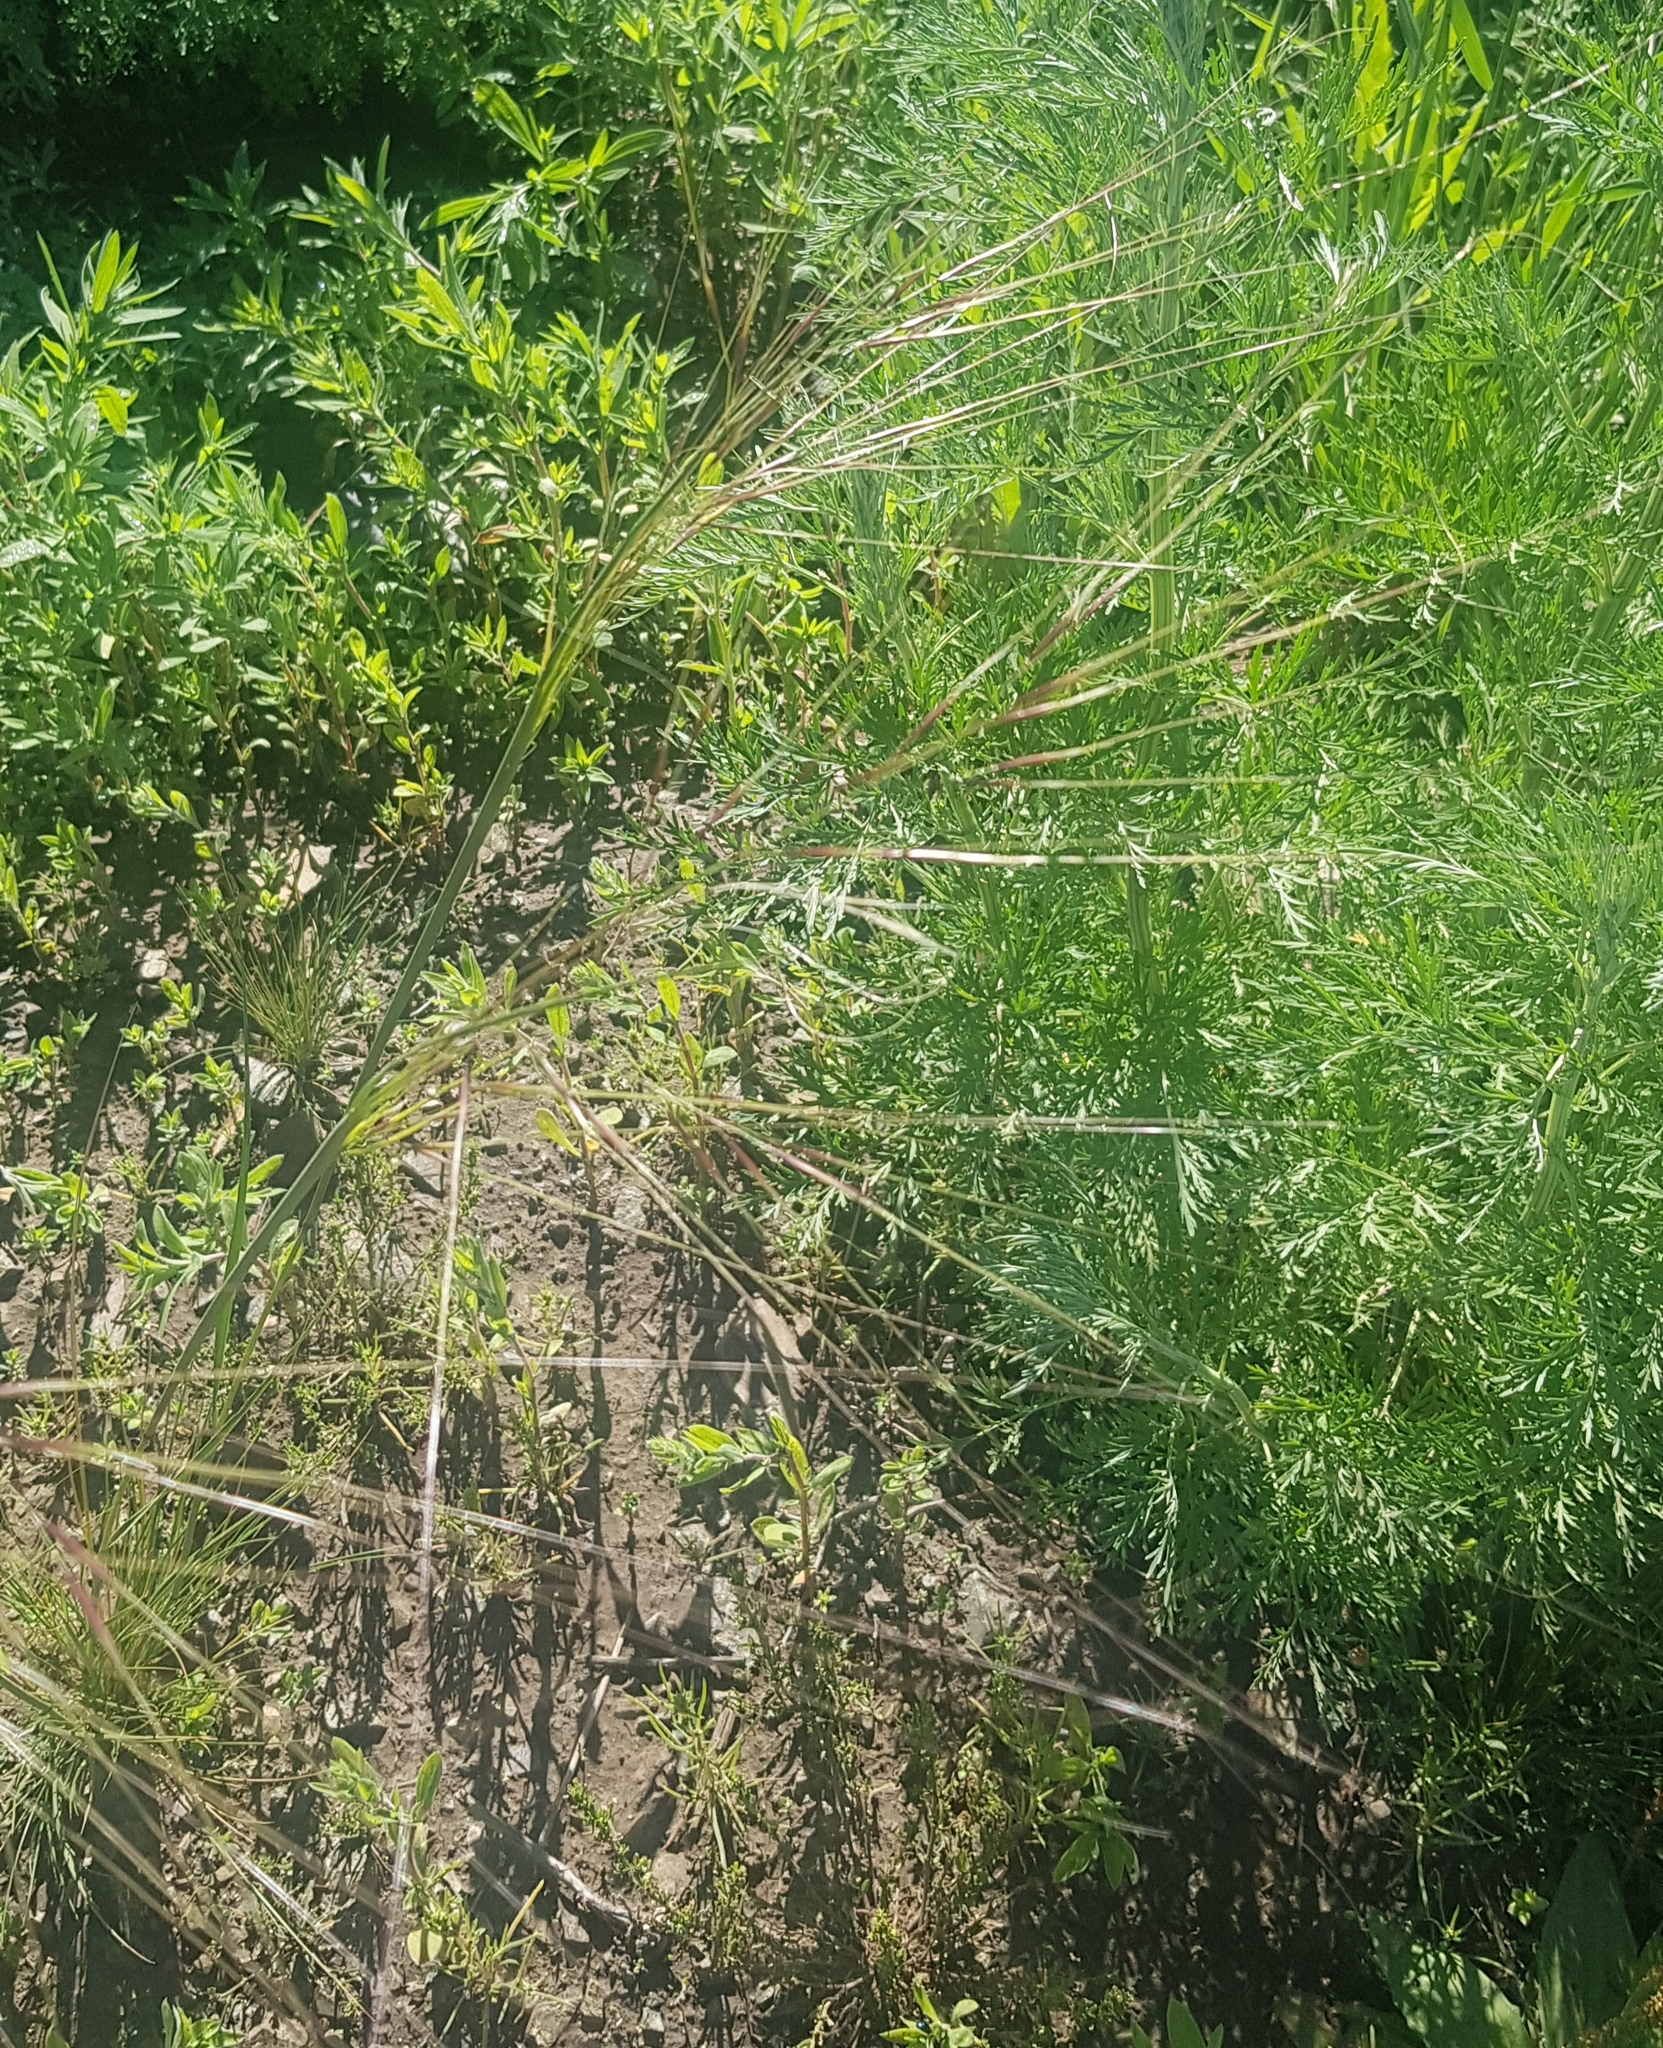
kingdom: Plantae
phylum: Tracheophyta
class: Liliopsida
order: Poales
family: Poaceae
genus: Stipa
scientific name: Stipa krylovii
